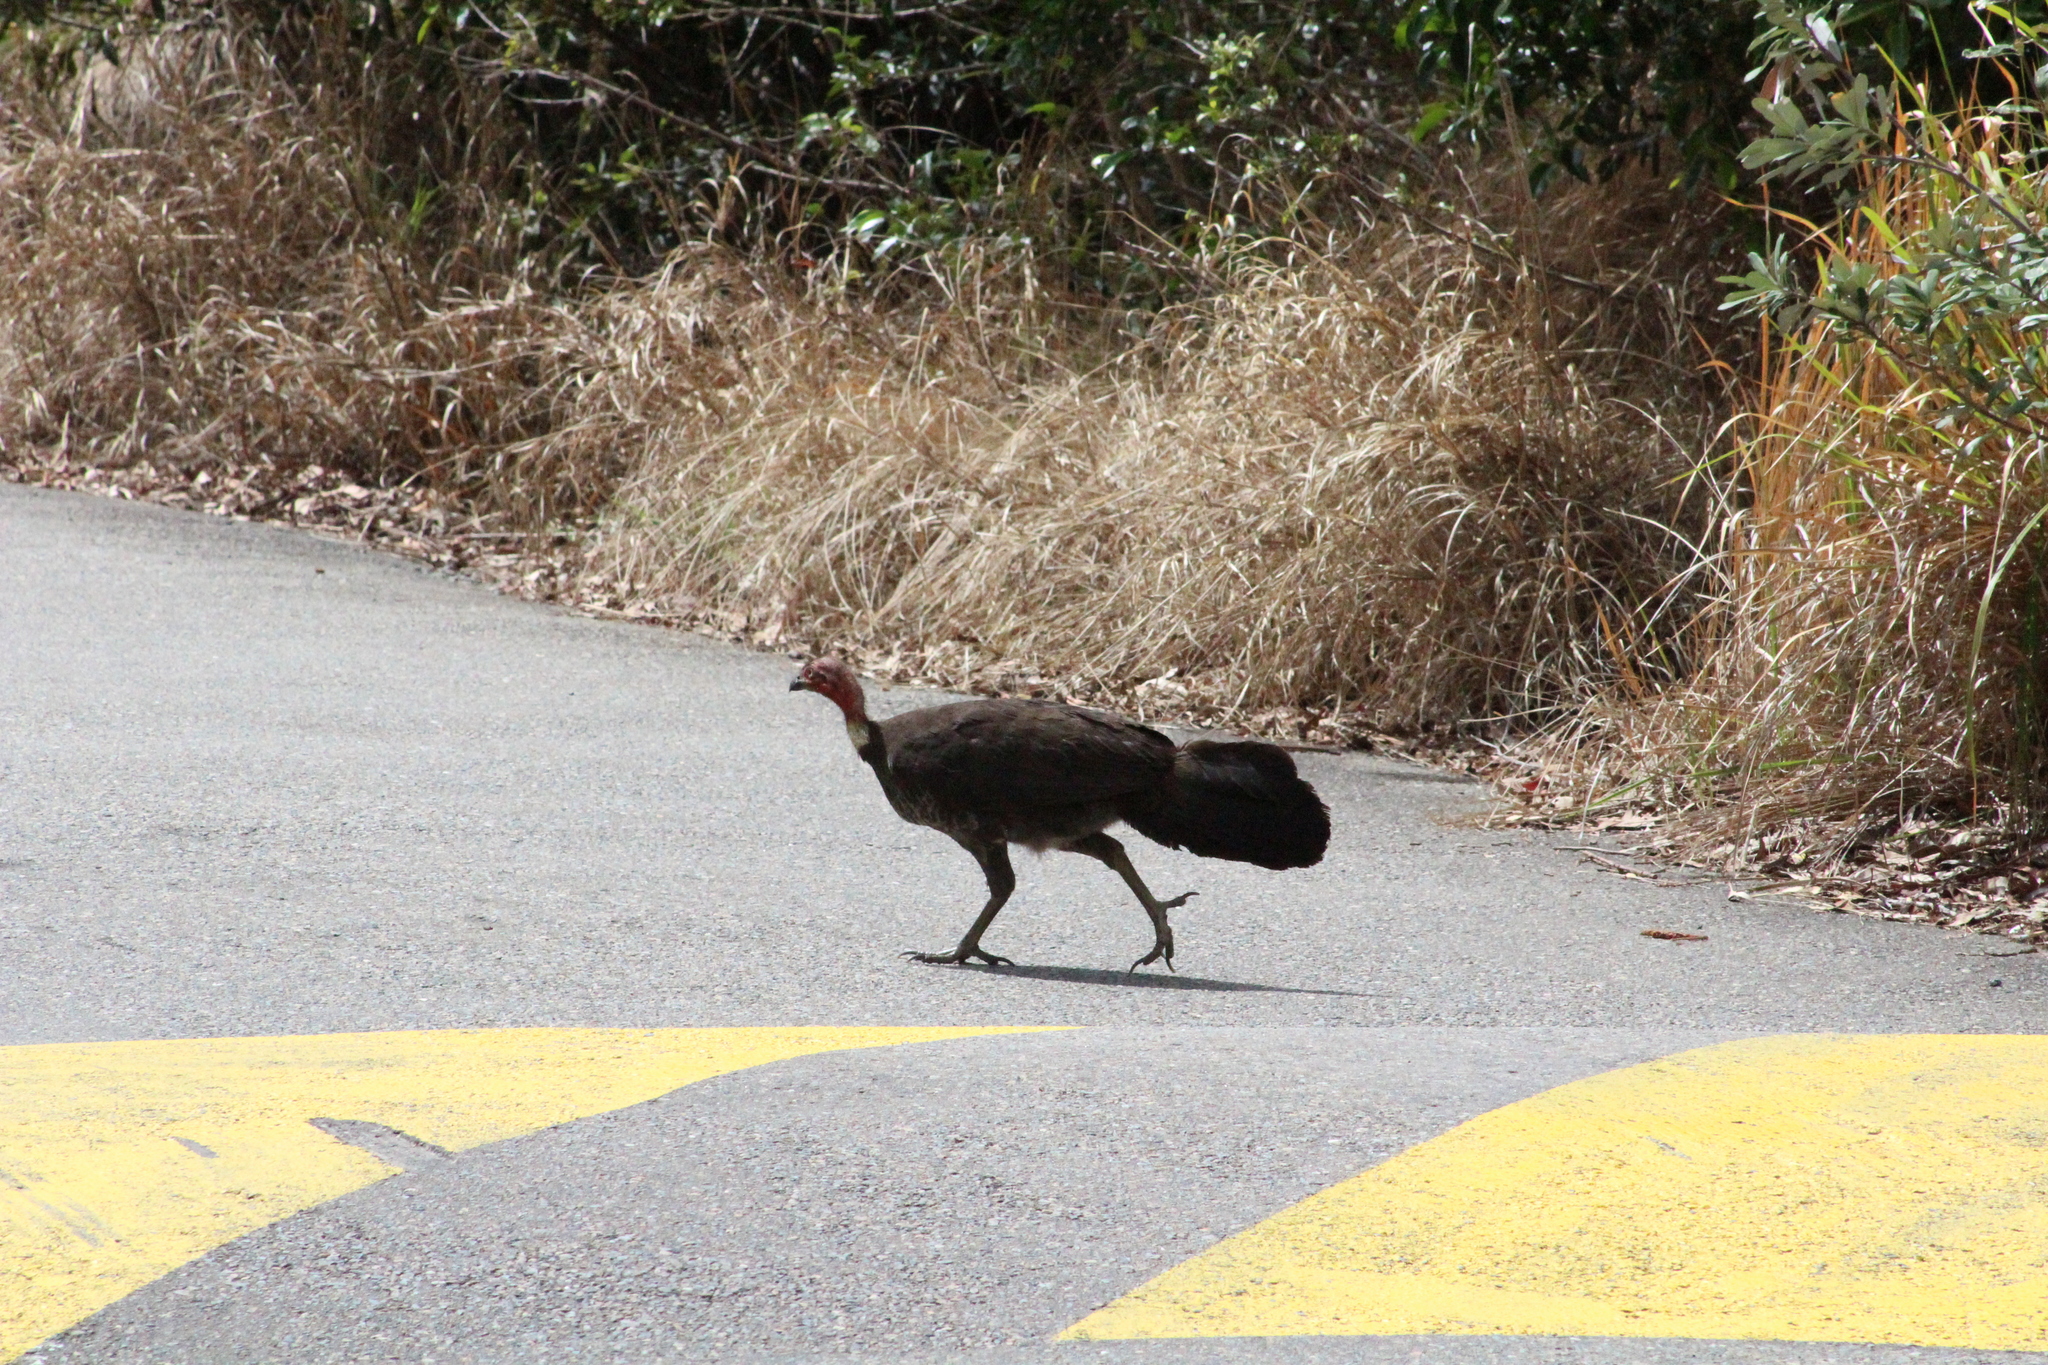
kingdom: Animalia
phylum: Chordata
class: Aves
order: Galliformes
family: Megapodiidae
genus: Alectura
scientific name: Alectura lathami
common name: Australian brushturkey
